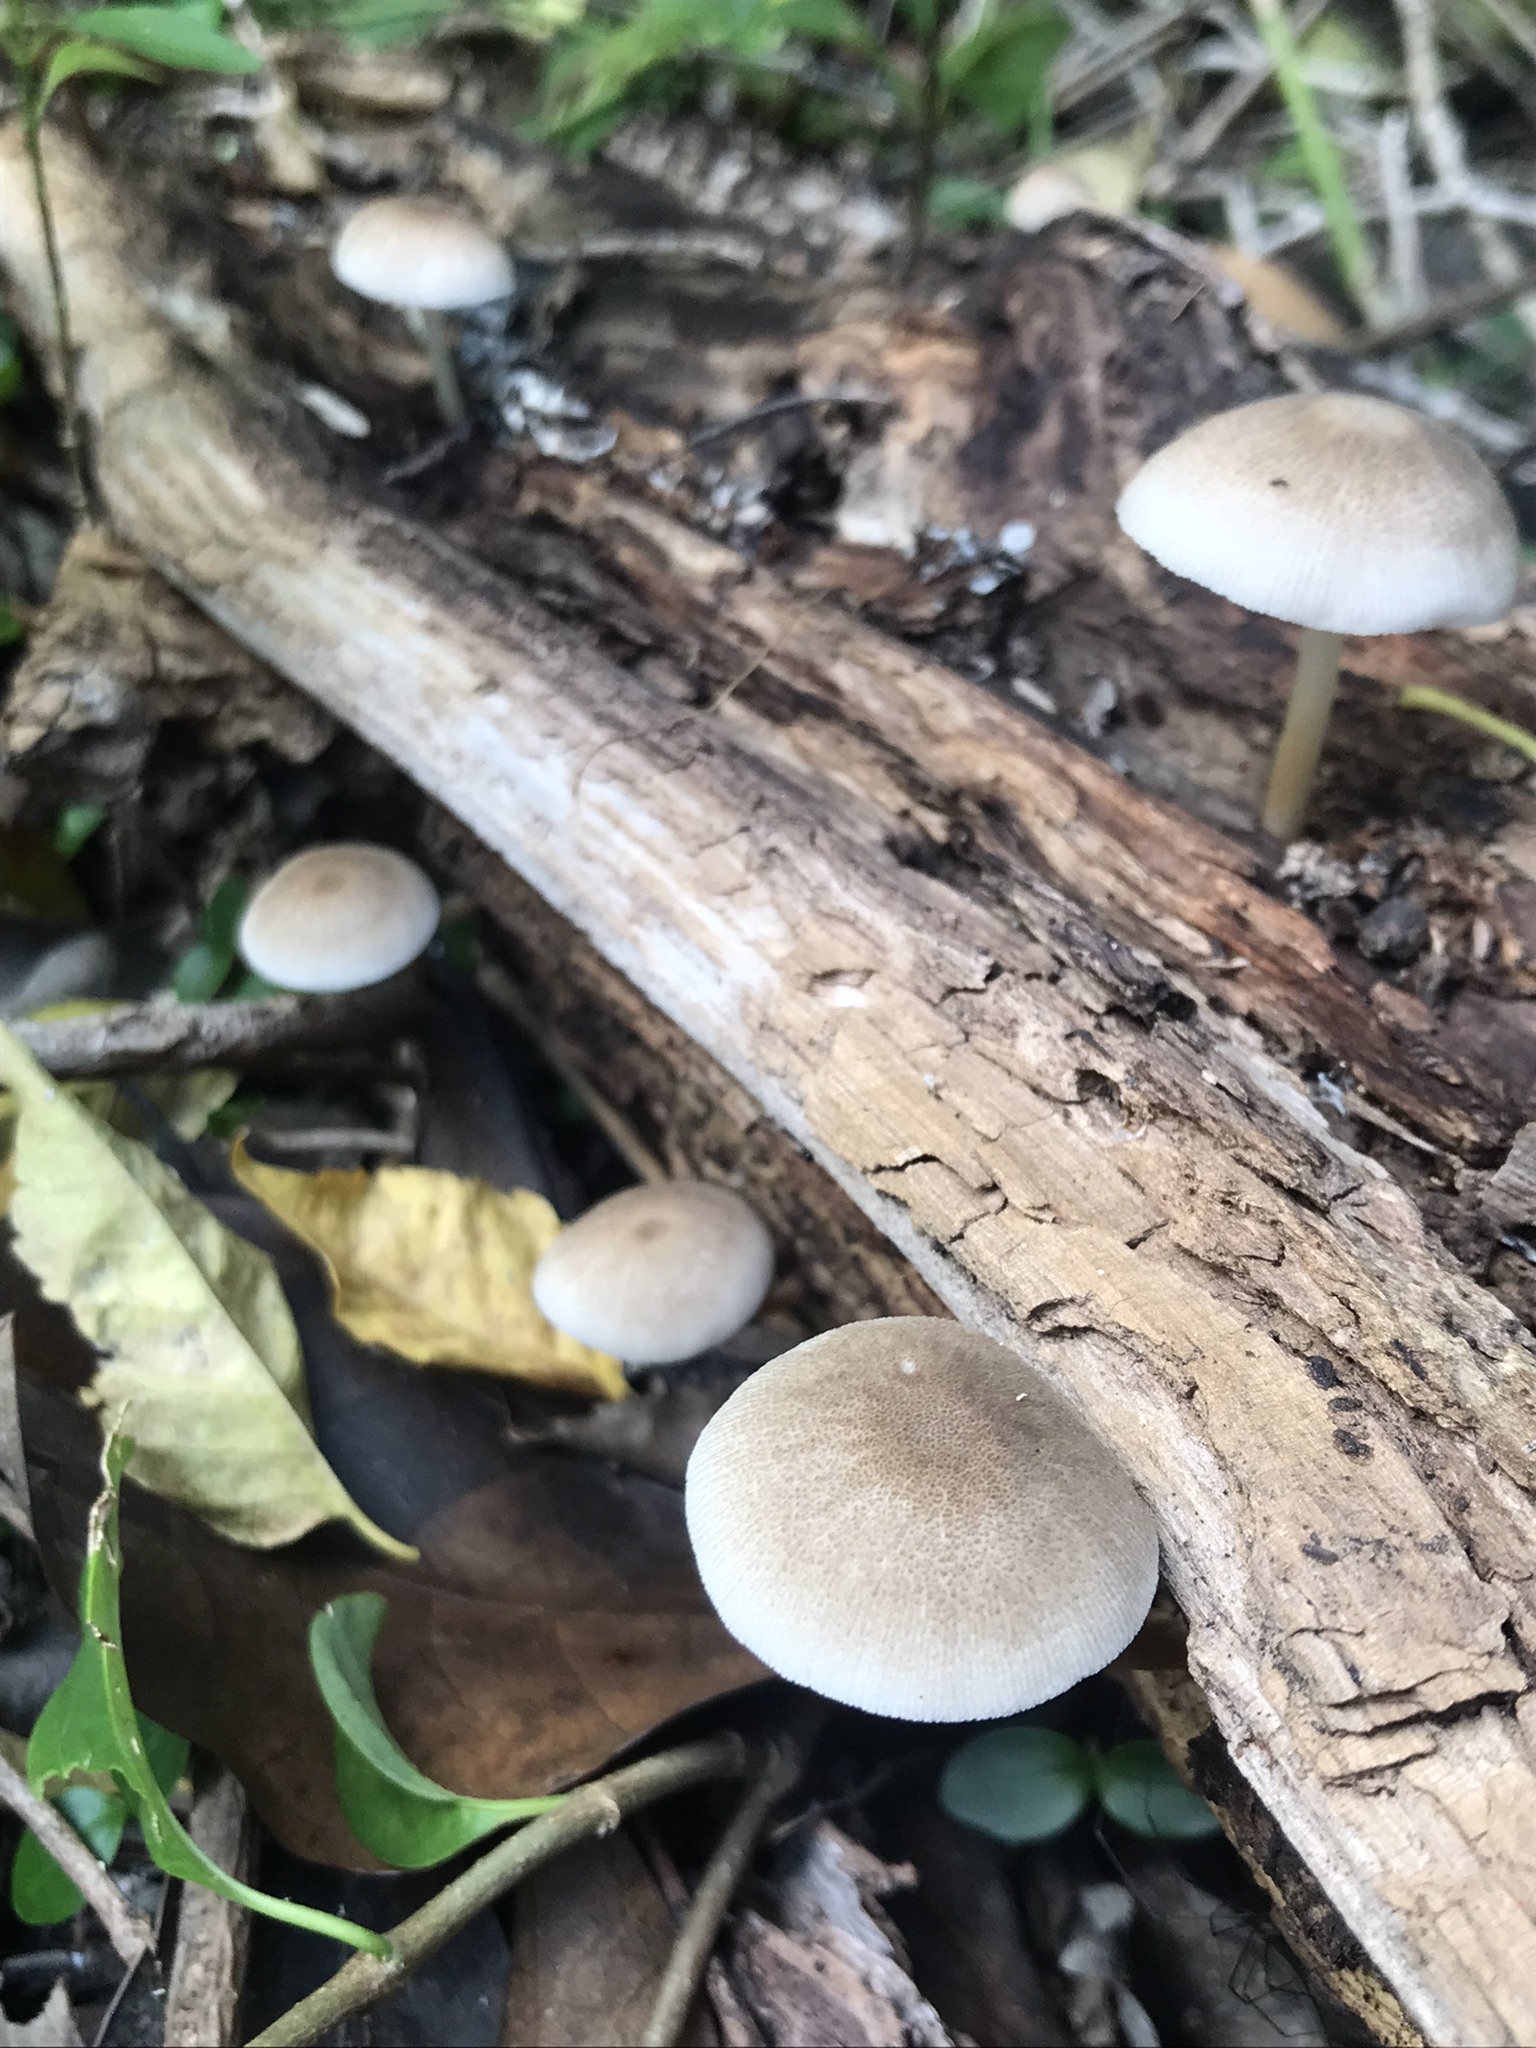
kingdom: Fungi
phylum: Basidiomycota
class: Agaricomycetes
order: Agaricales
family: Pluteaceae
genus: Pluteus
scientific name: Pluteus longistriatus
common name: Pleated pluteus
